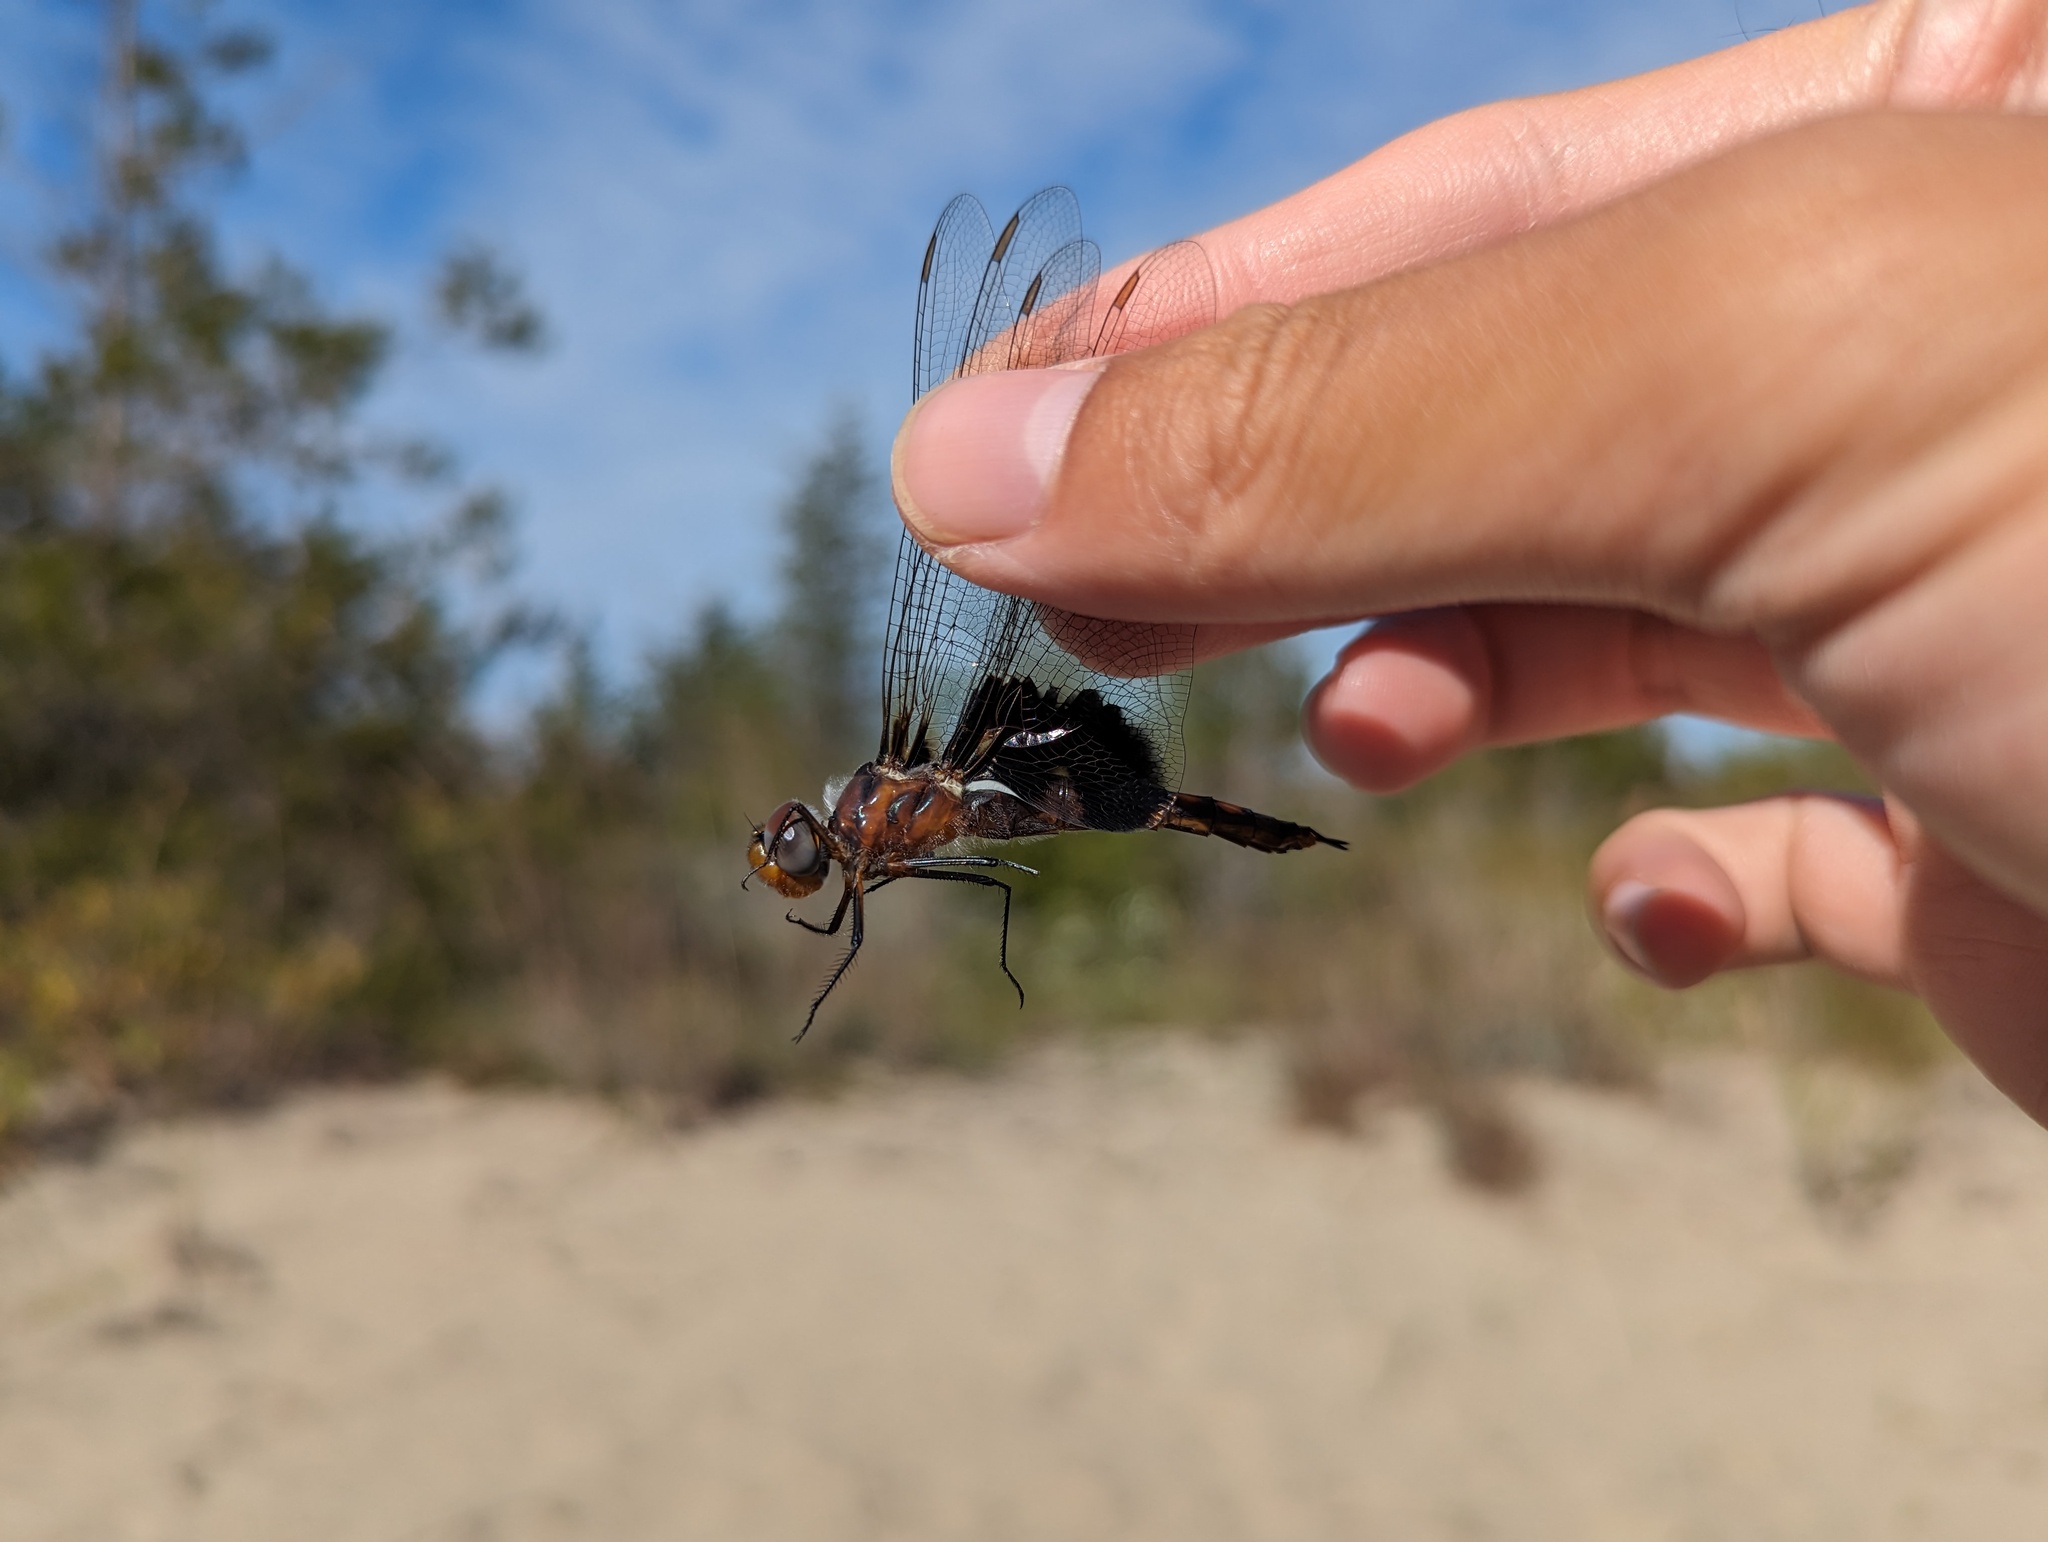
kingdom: Animalia
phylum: Arthropoda
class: Insecta
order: Odonata
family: Libellulidae
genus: Tramea
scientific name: Tramea lacerata
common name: Black saddlebags
